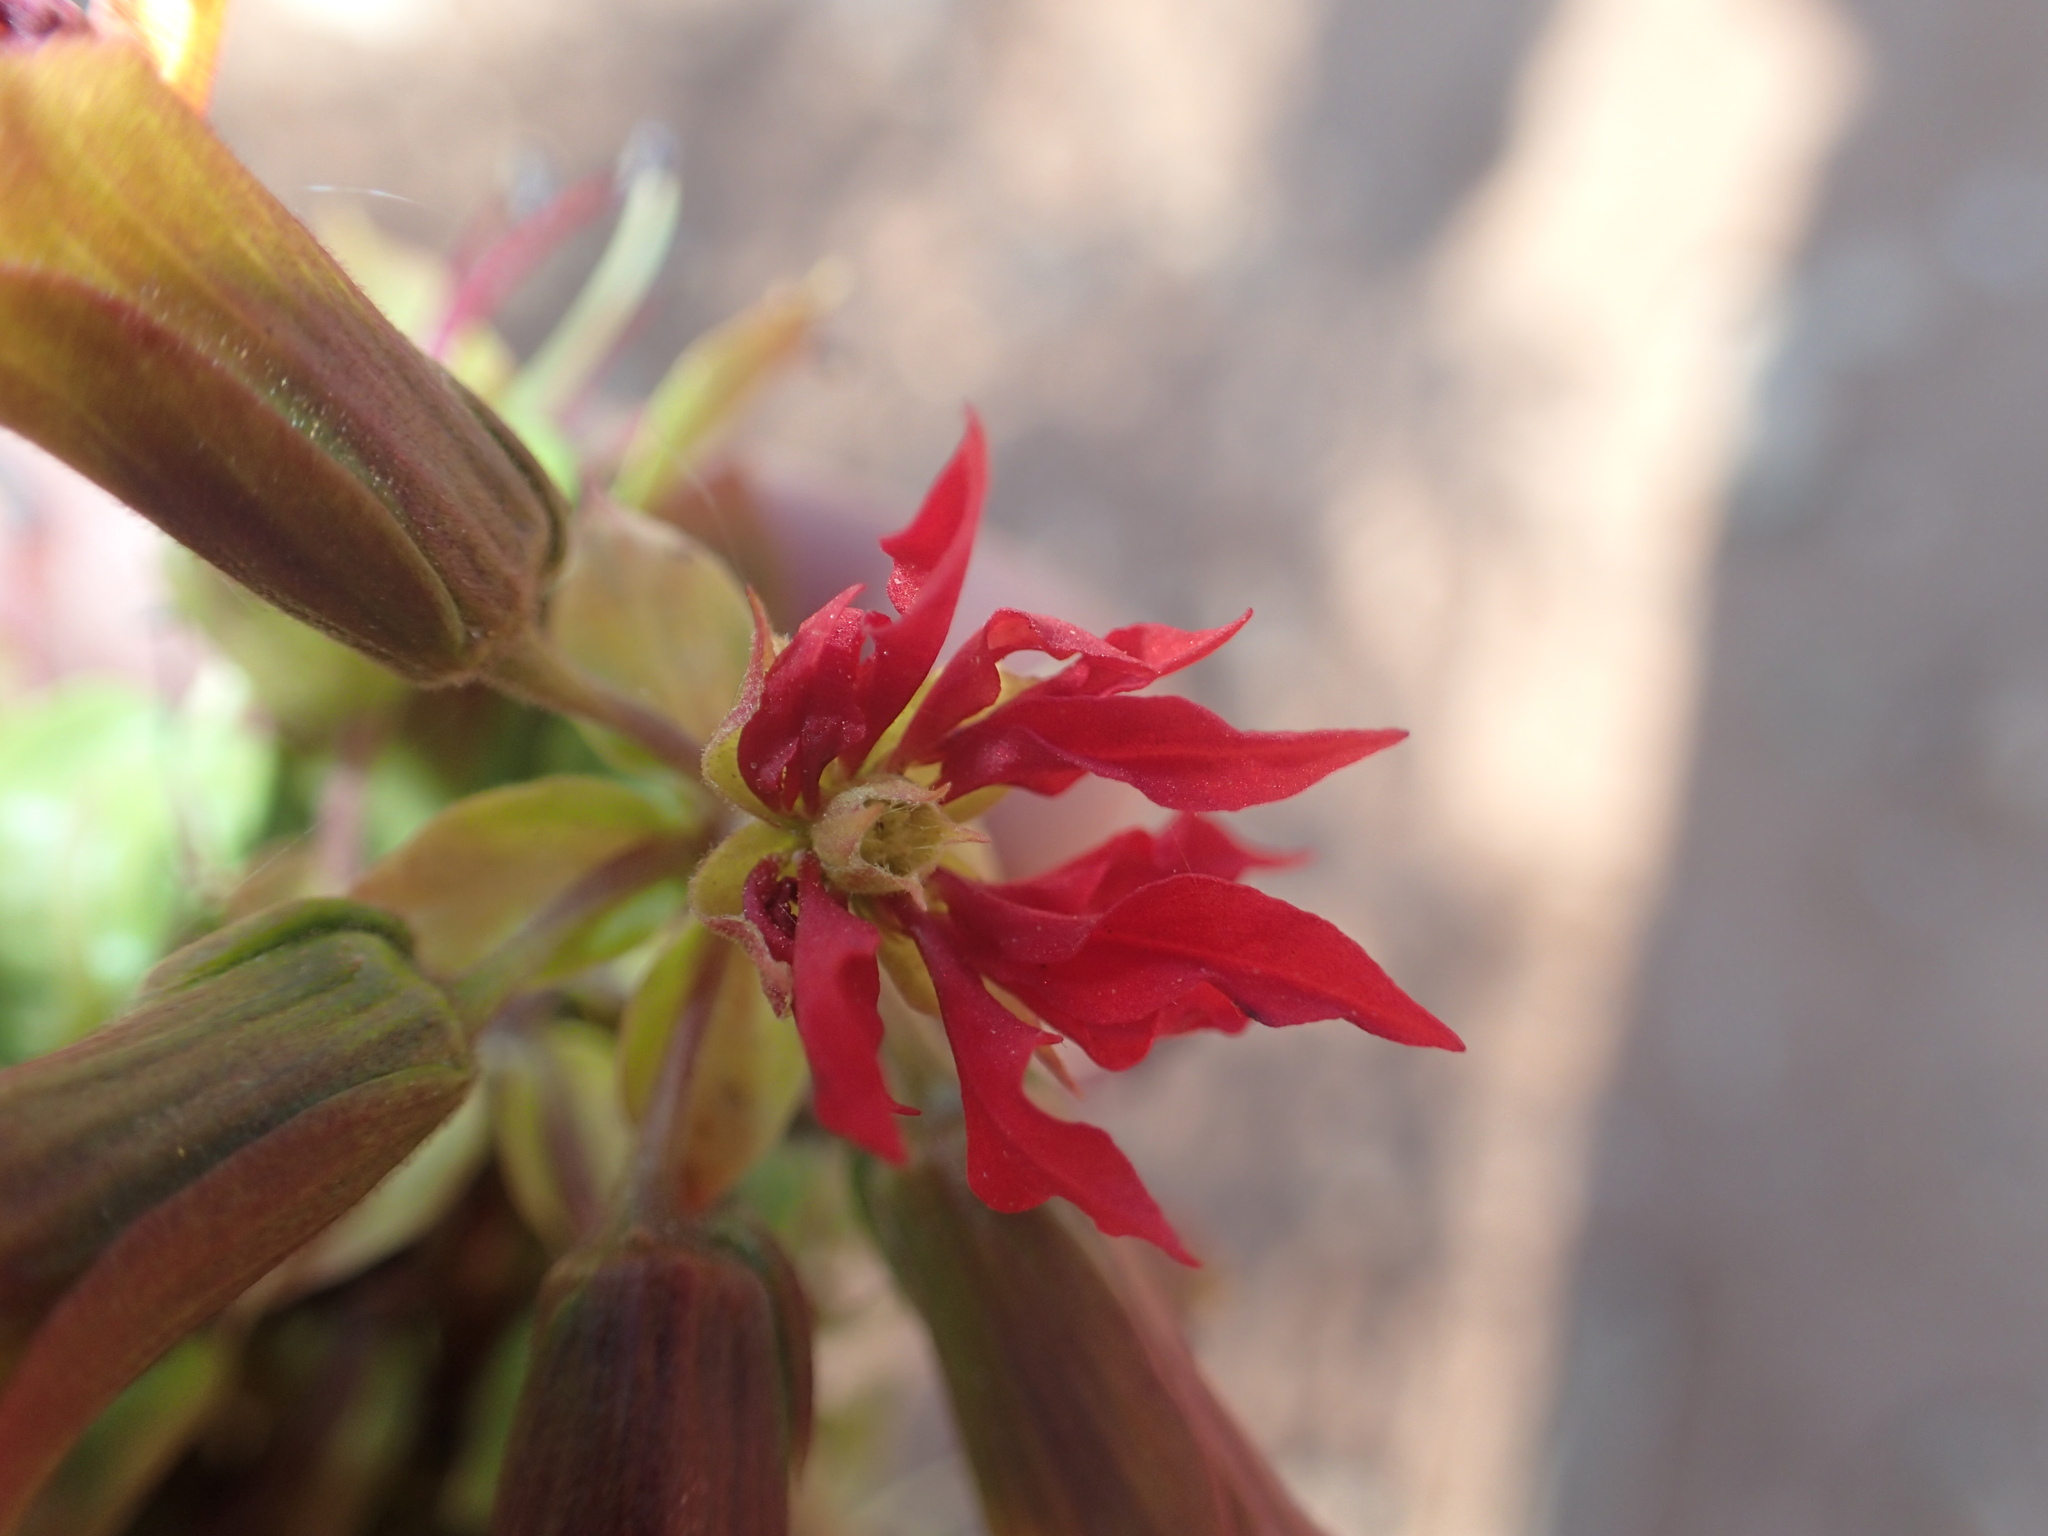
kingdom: Plantae
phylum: Tracheophyta
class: Magnoliopsida
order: Geraniales
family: Melianthaceae
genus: Melianthus
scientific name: Melianthus pectinatus
